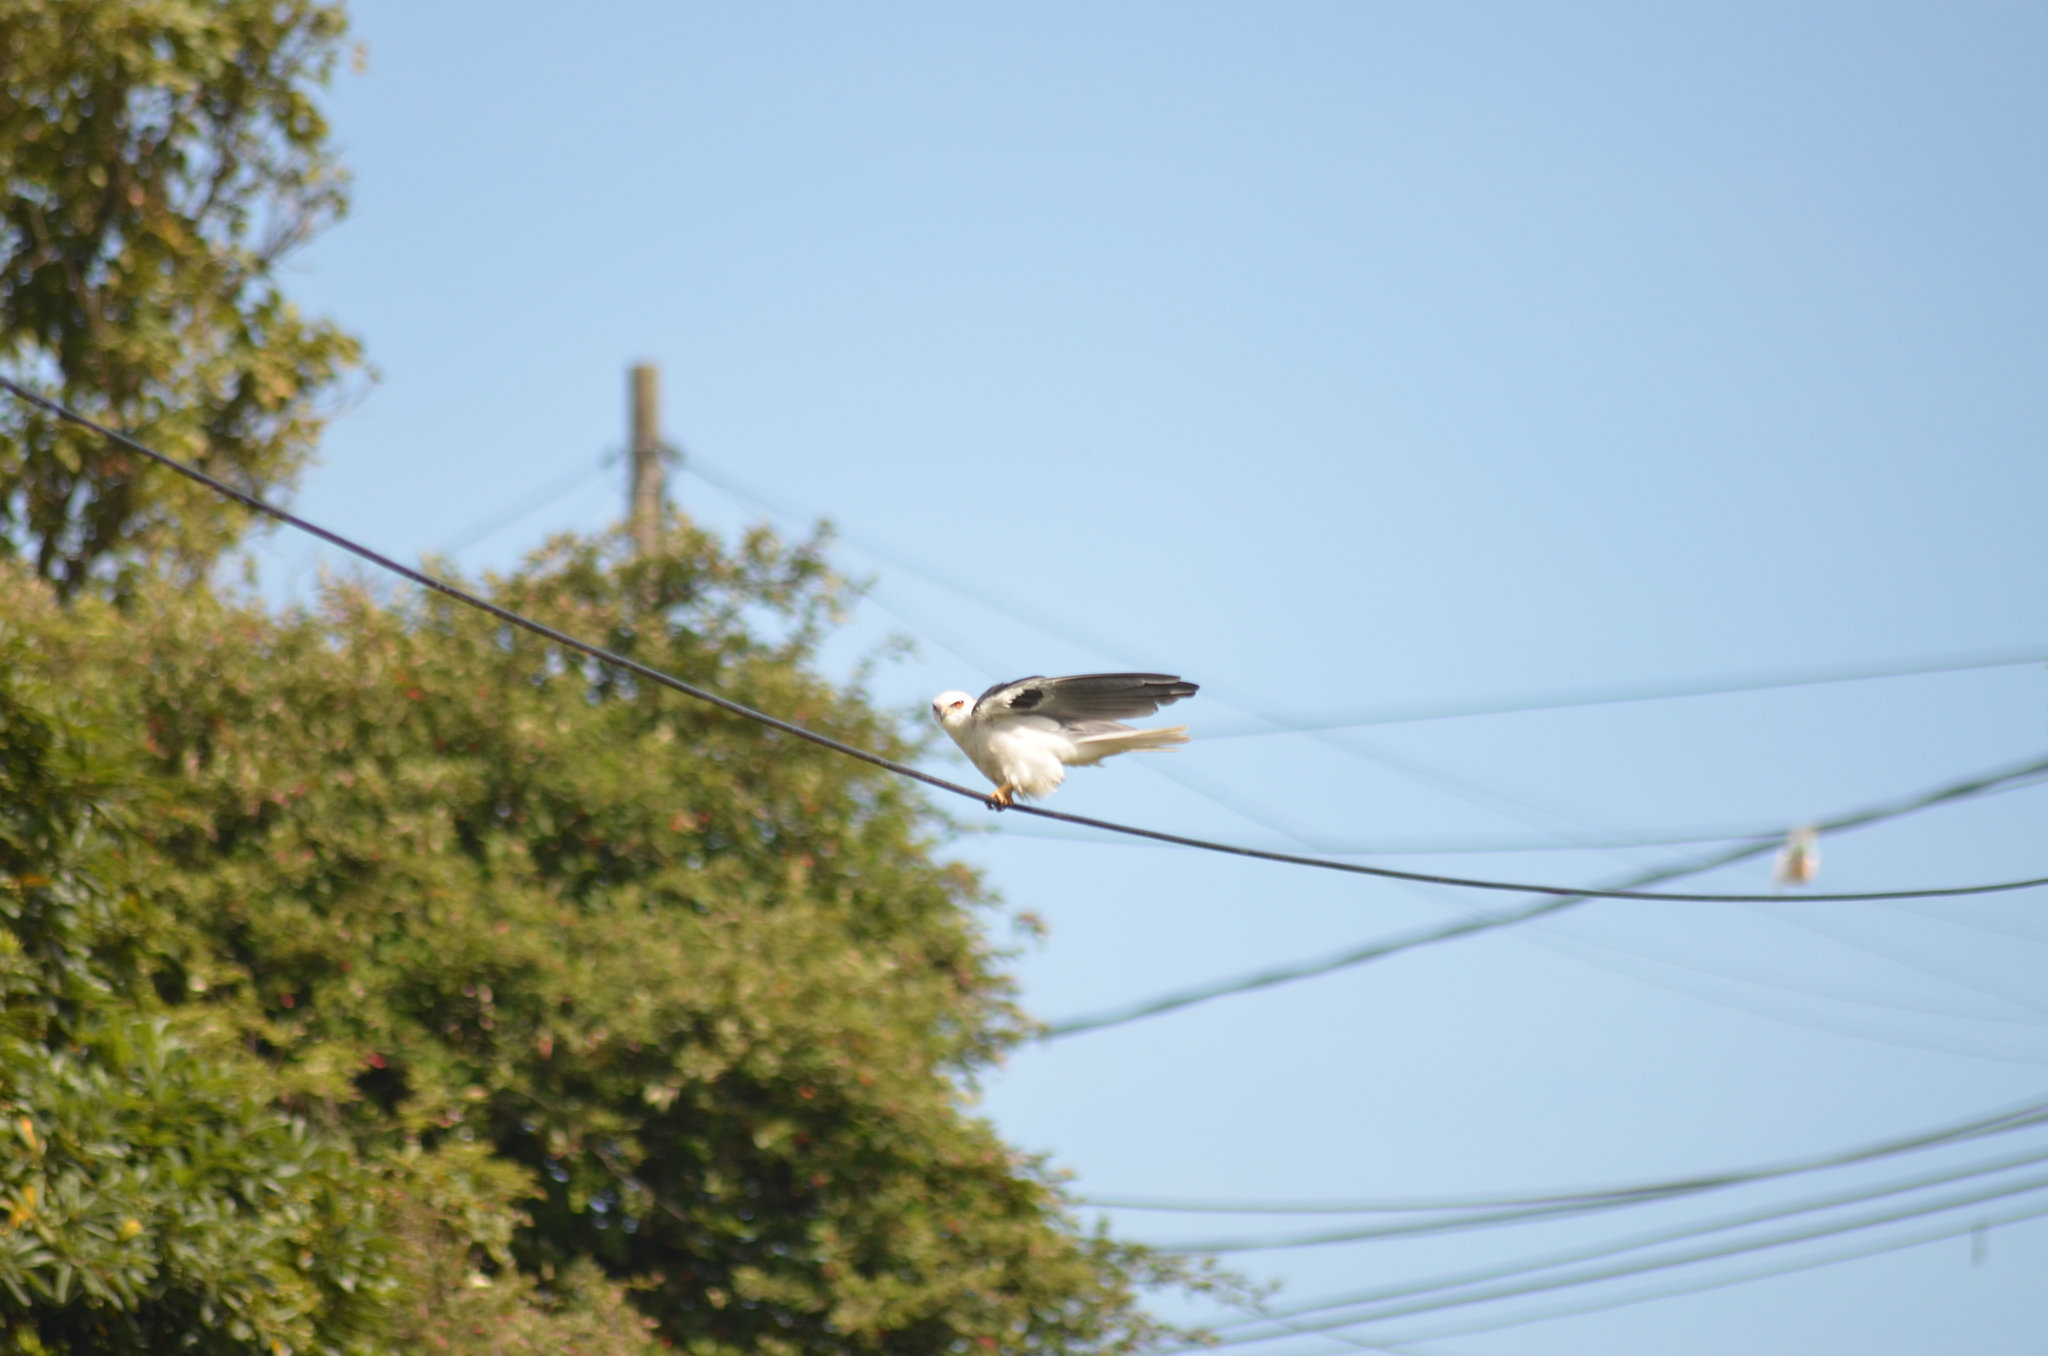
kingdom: Animalia
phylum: Chordata
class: Aves
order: Accipitriformes
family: Accipitridae
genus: Elanus
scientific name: Elanus leucurus
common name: White-tailed kite
